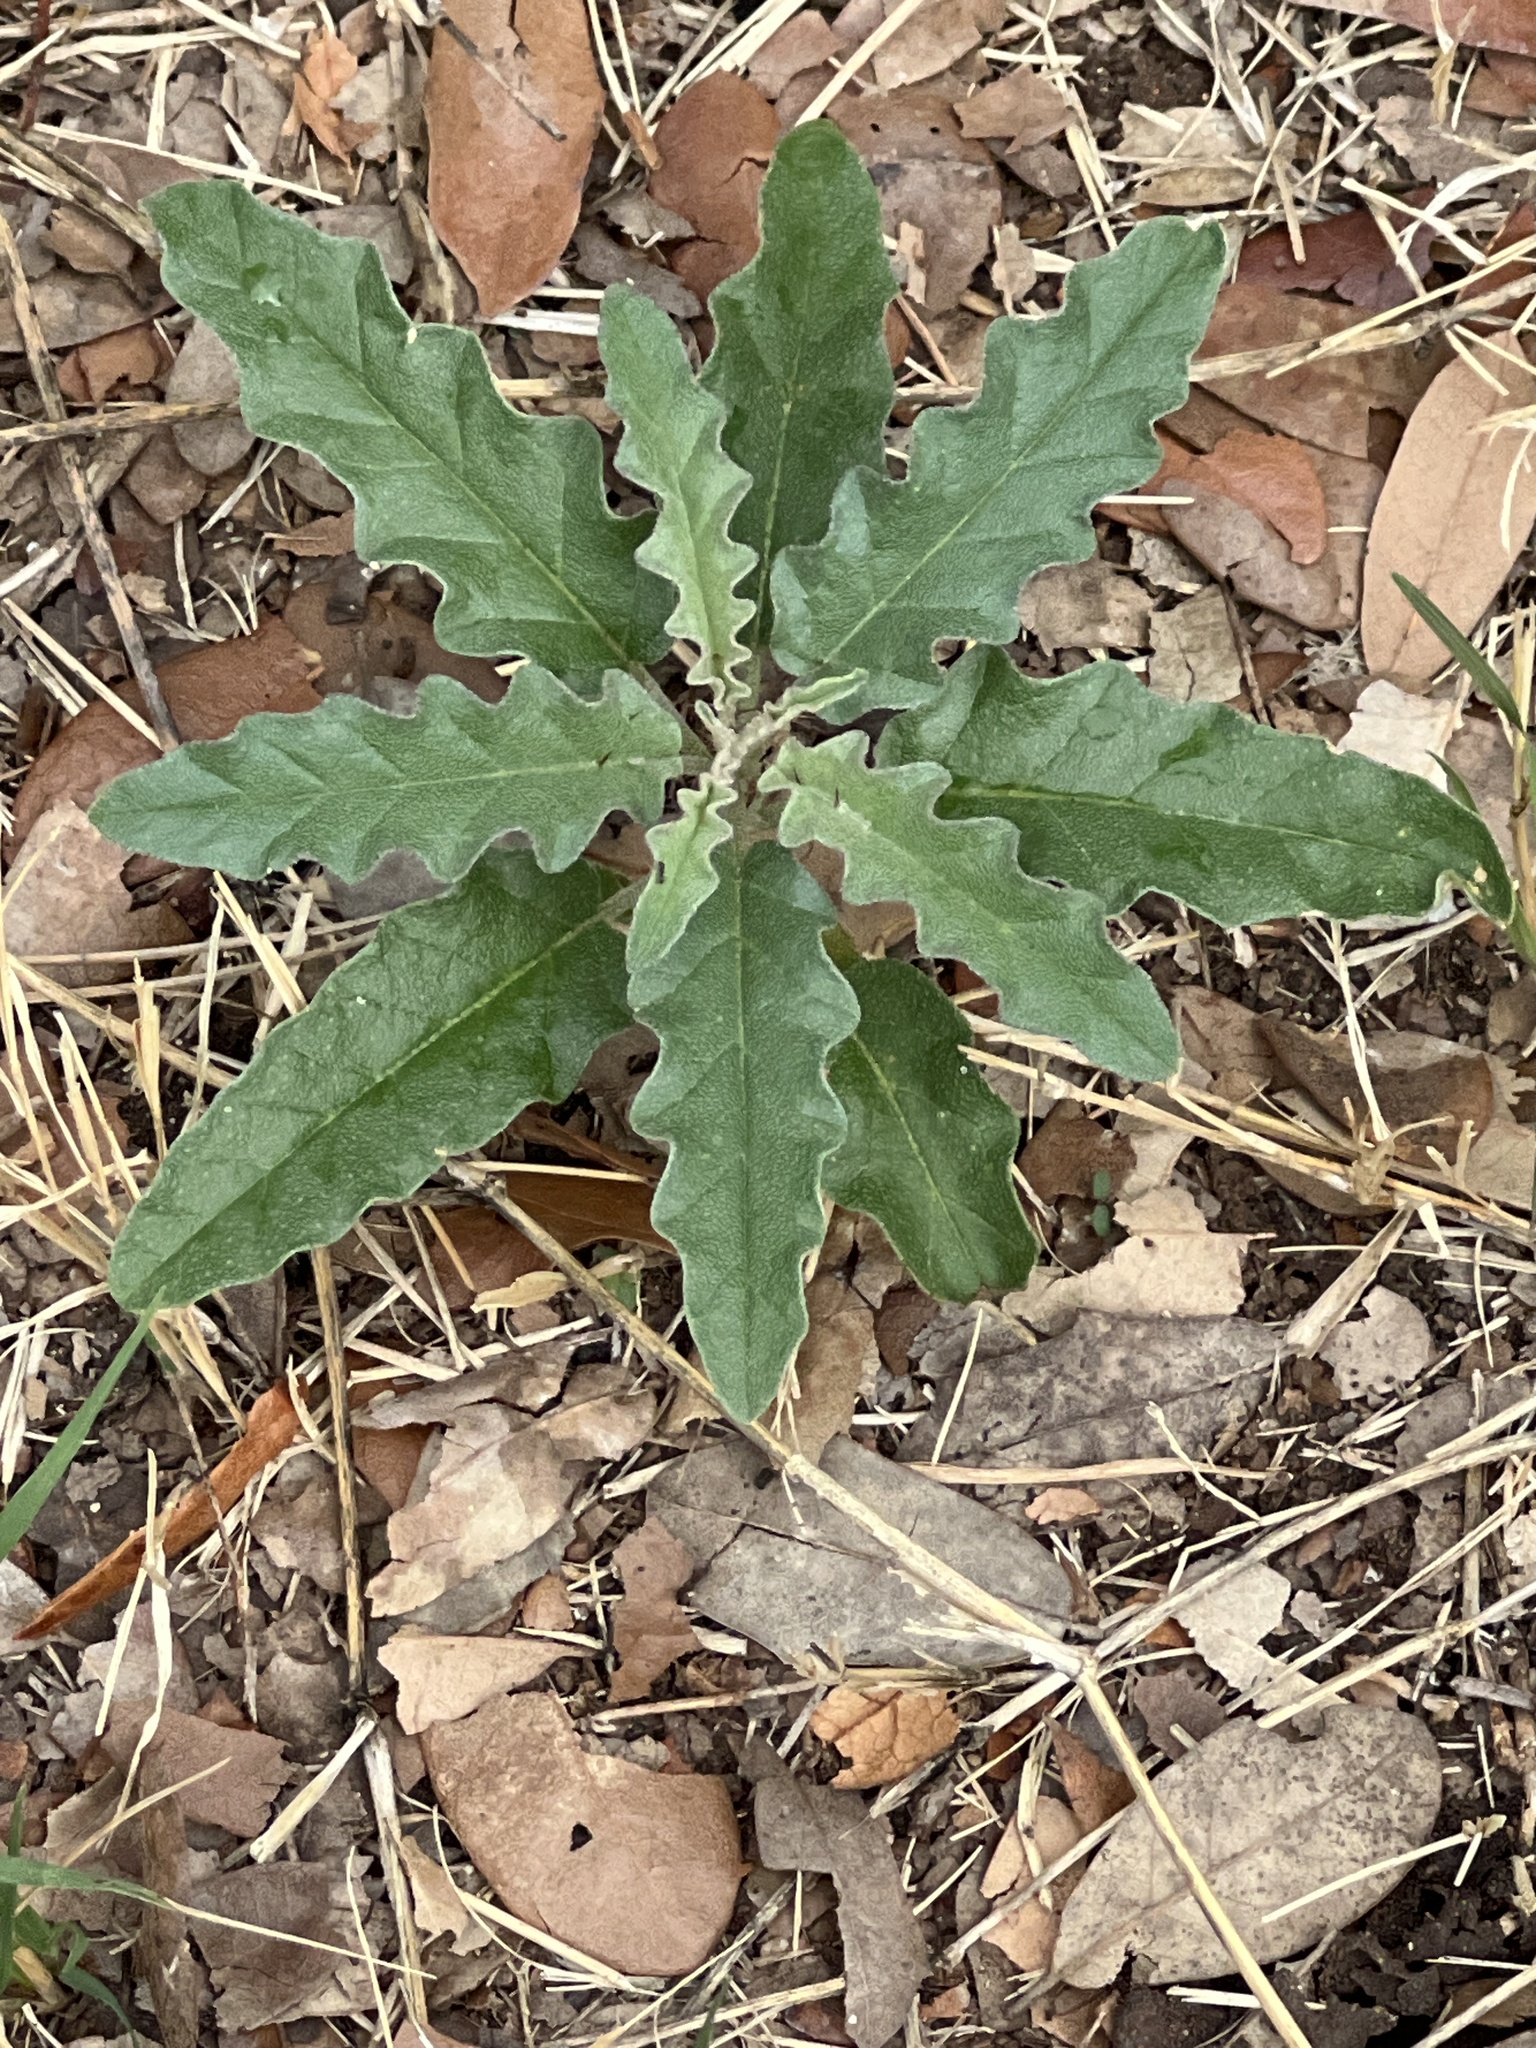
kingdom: Plantae
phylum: Tracheophyta
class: Magnoliopsida
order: Solanales
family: Solanaceae
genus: Solanum
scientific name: Solanum elaeagnifolium
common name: Silverleaf nightshade
